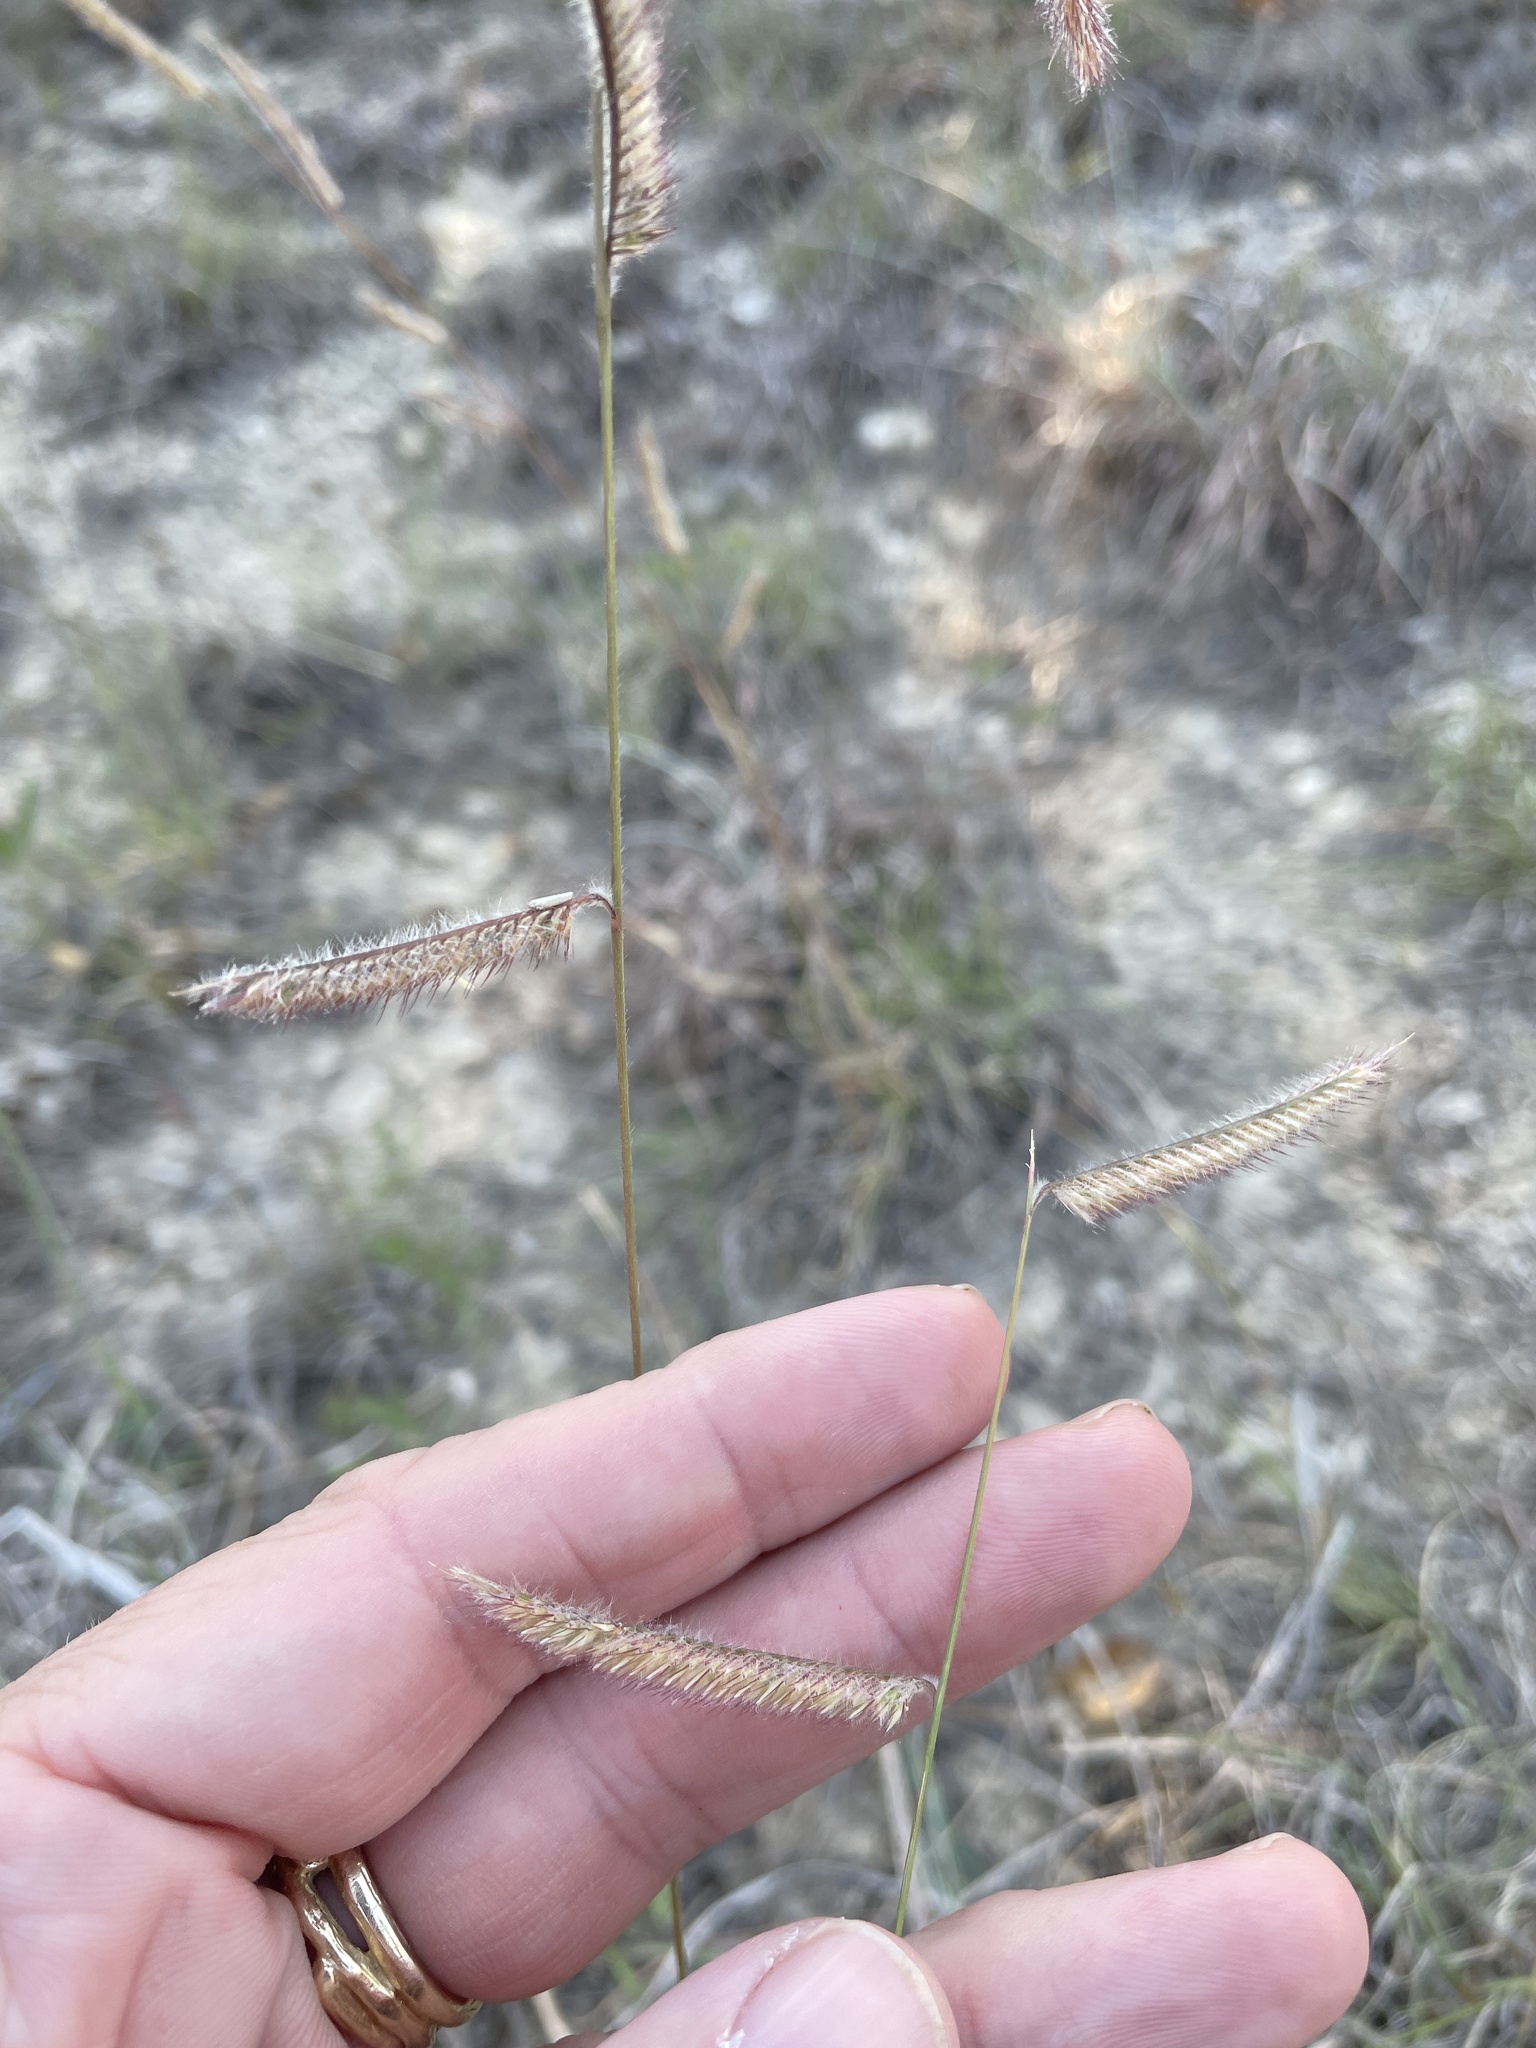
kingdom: Plantae
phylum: Tracheophyta
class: Liliopsida
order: Poales
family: Poaceae
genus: Bouteloua
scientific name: Bouteloua pectinata
